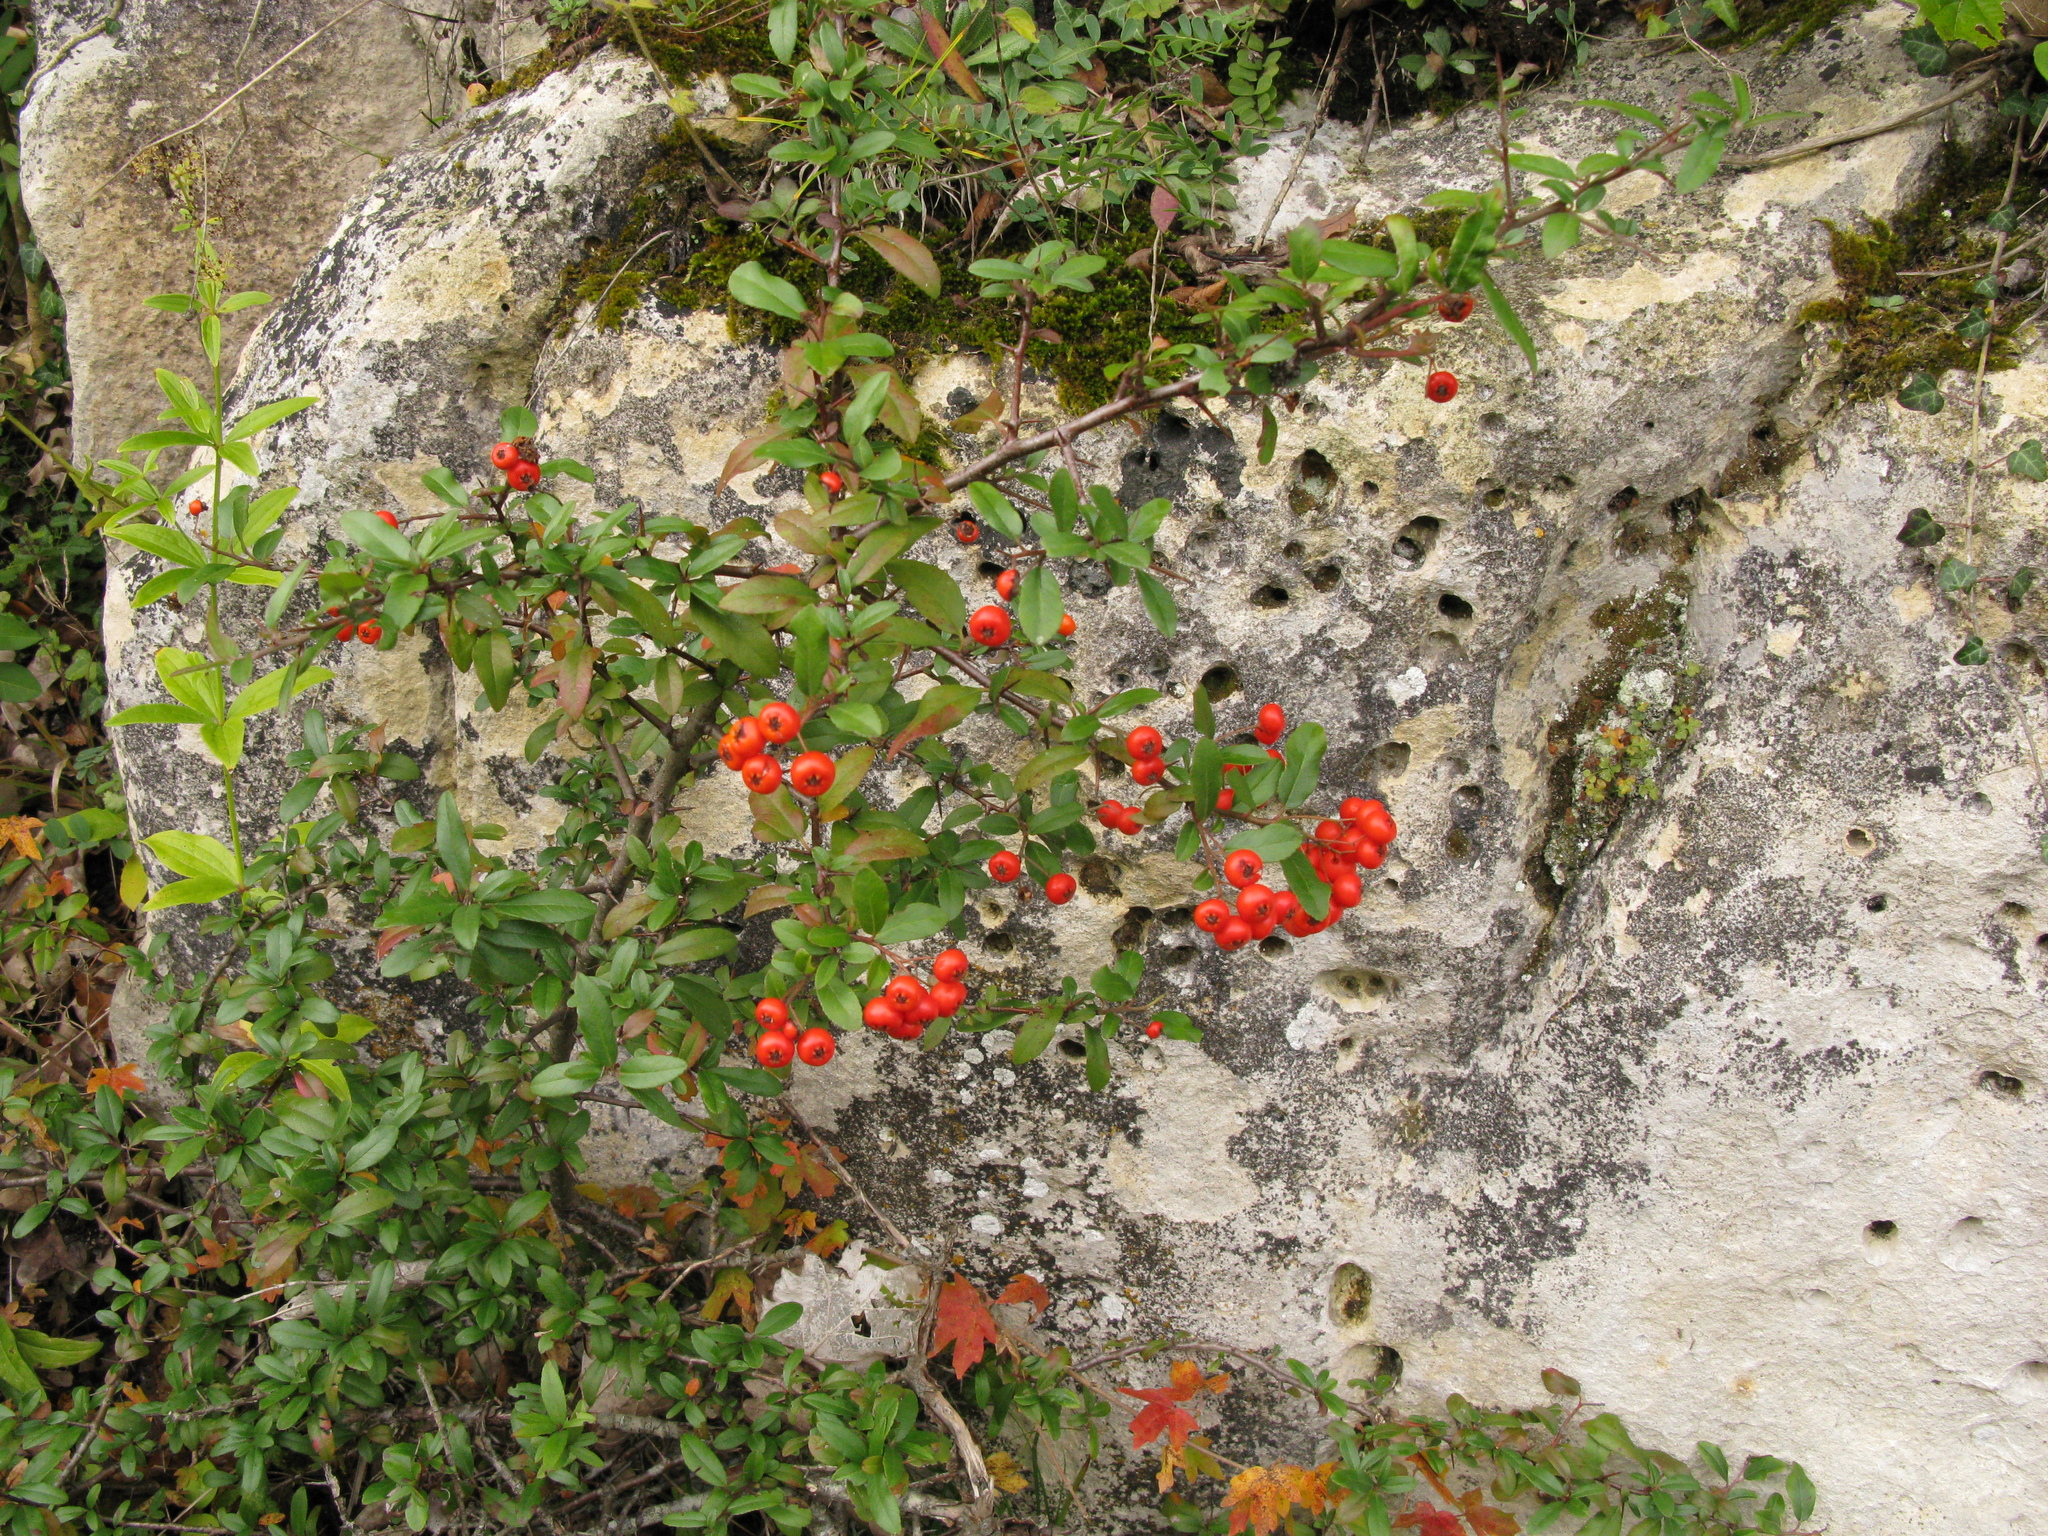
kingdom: Plantae
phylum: Tracheophyta
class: Magnoliopsida
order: Rosales
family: Rosaceae
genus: Pyracantha
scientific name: Pyracantha coccinea
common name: Firethorn
